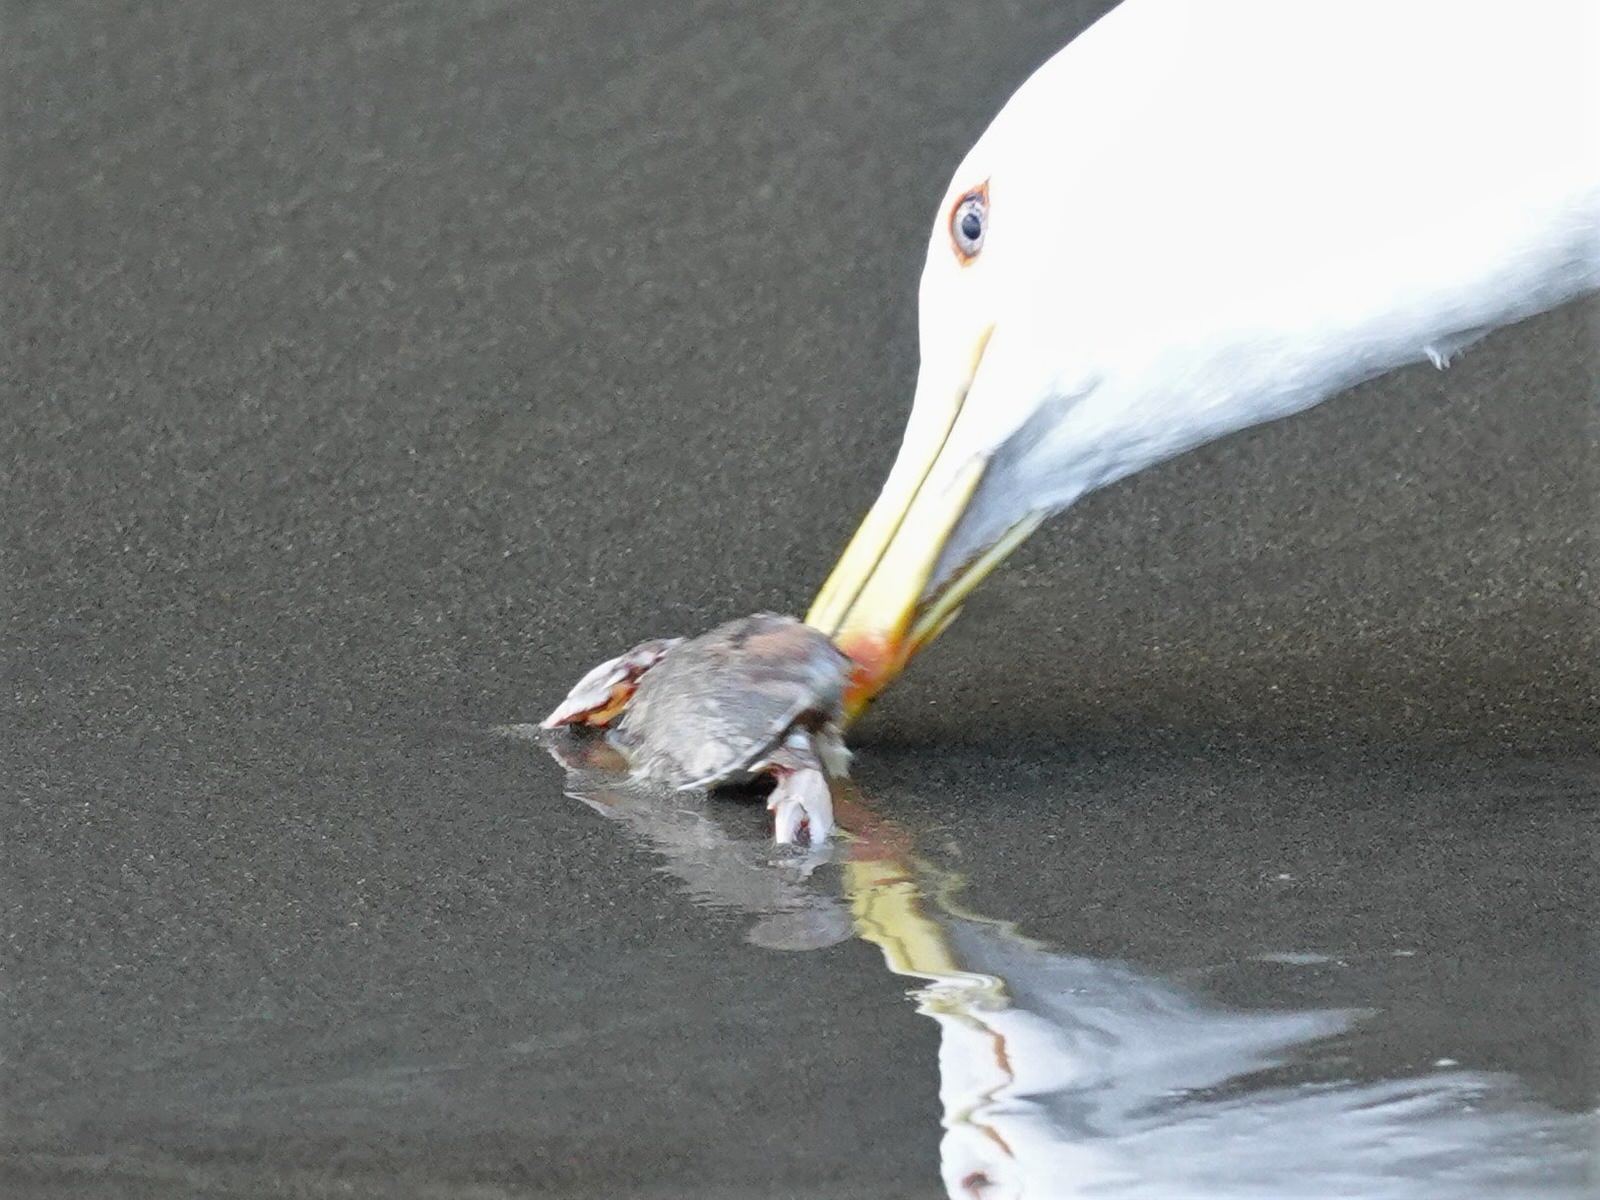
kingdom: Animalia
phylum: Arthropoda
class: Malacostraca
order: Decapoda
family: Ovalipidae
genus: Ovalipes
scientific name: Ovalipes catharus
